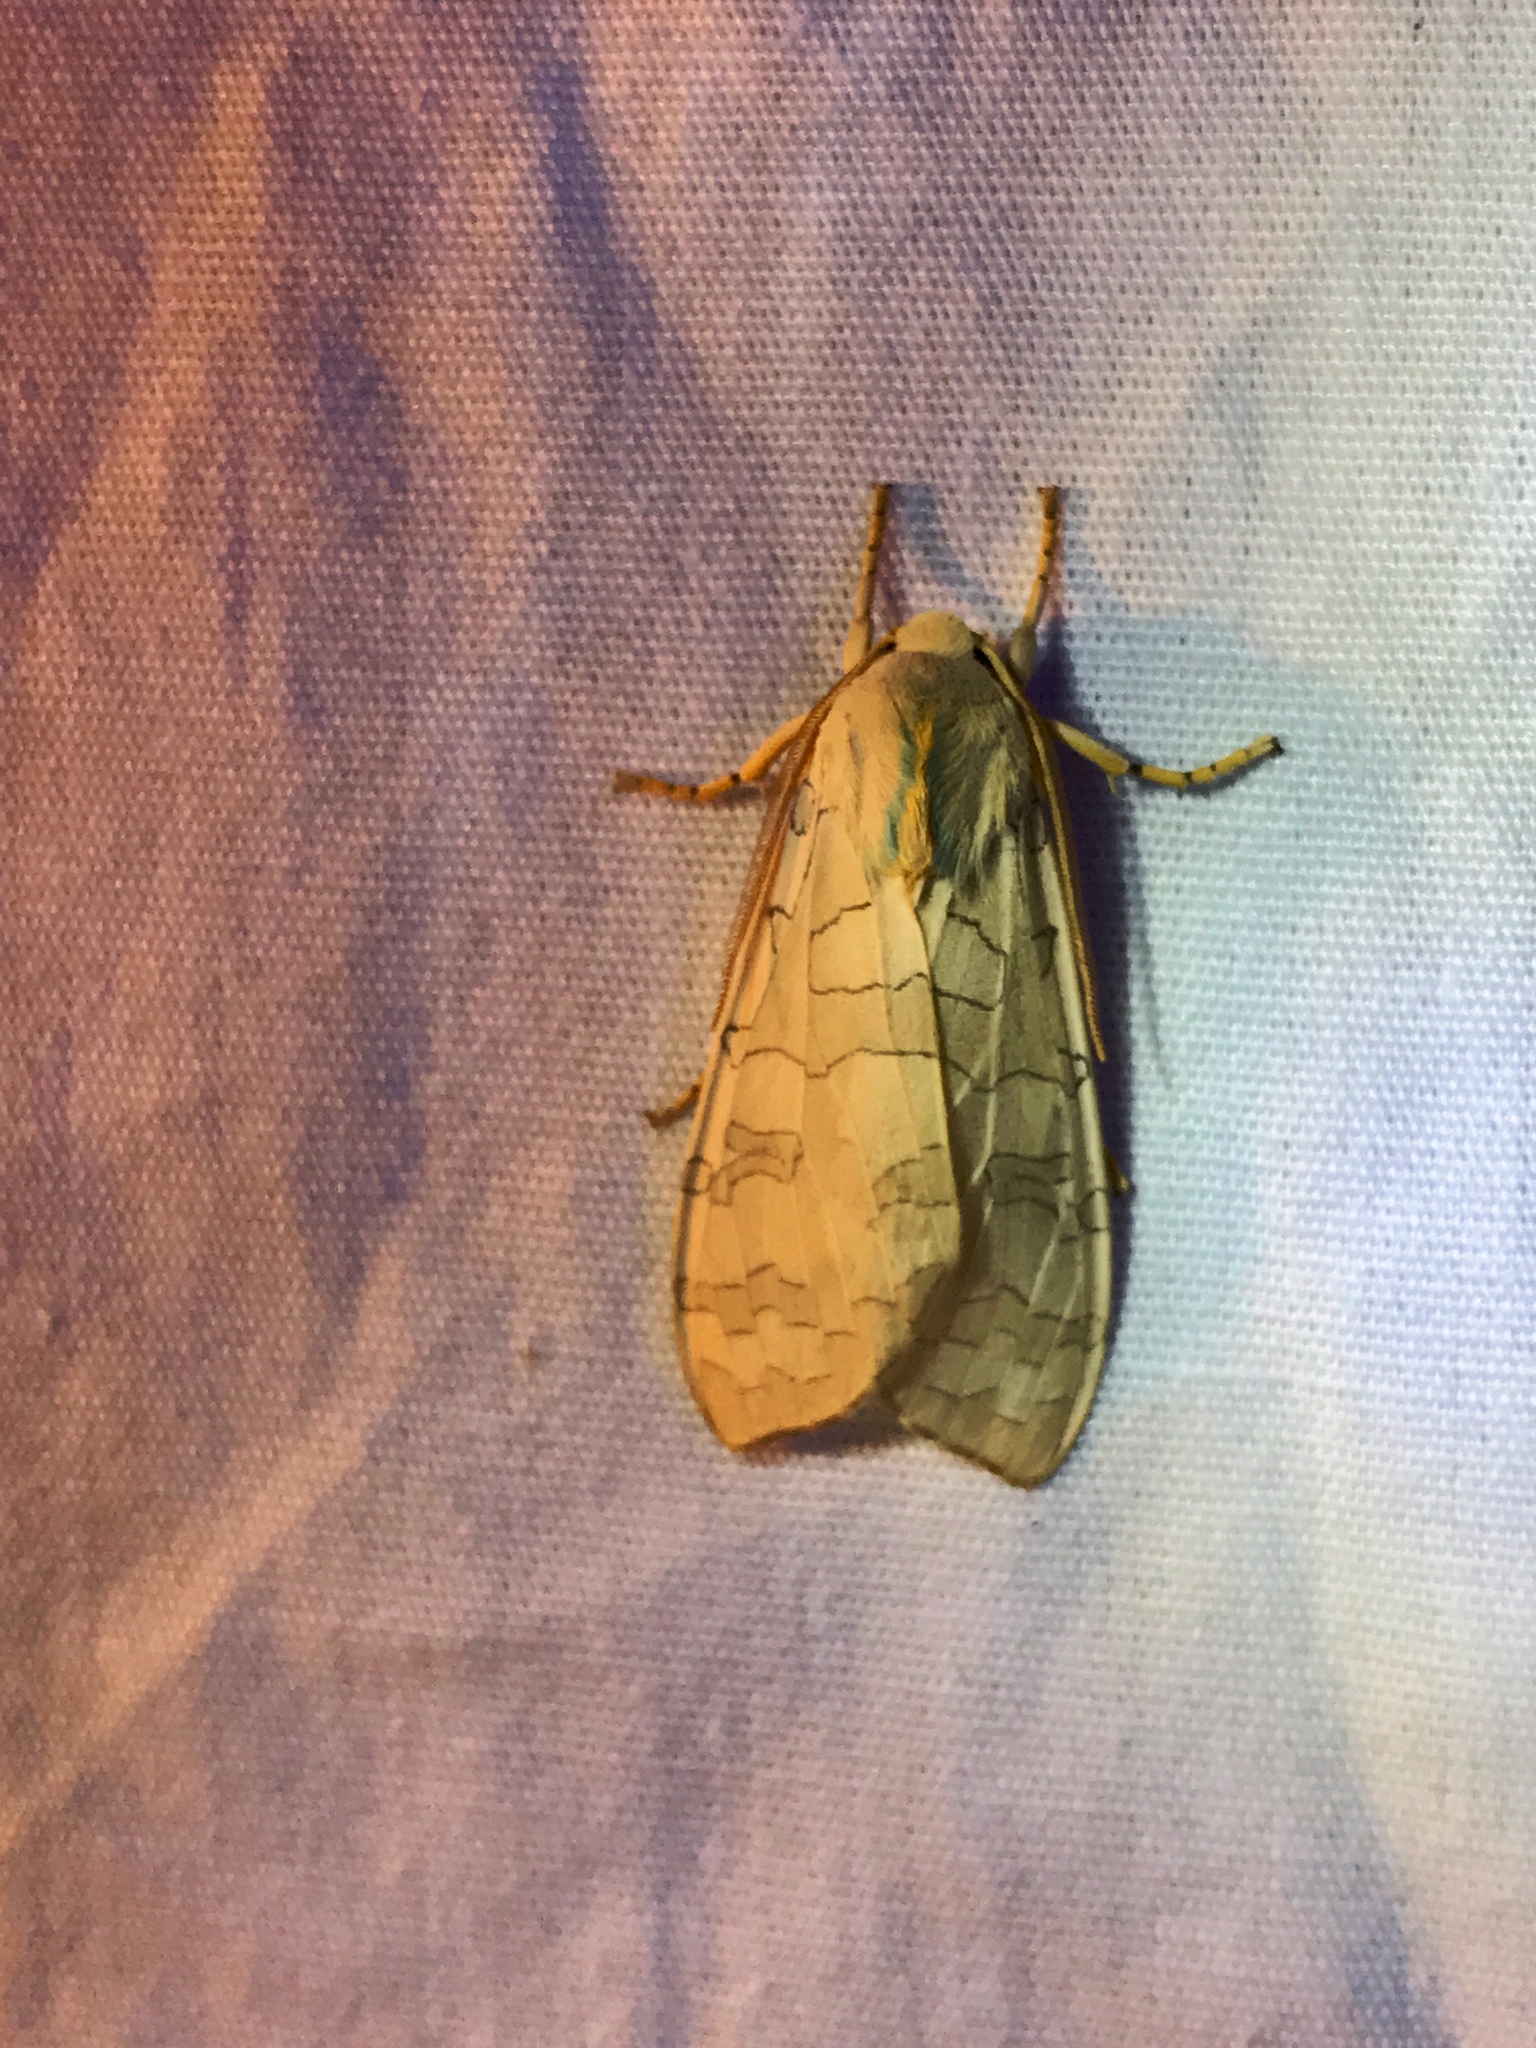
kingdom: Animalia
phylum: Arthropoda
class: Insecta
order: Lepidoptera
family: Erebidae
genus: Halysidota
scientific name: Halysidota
